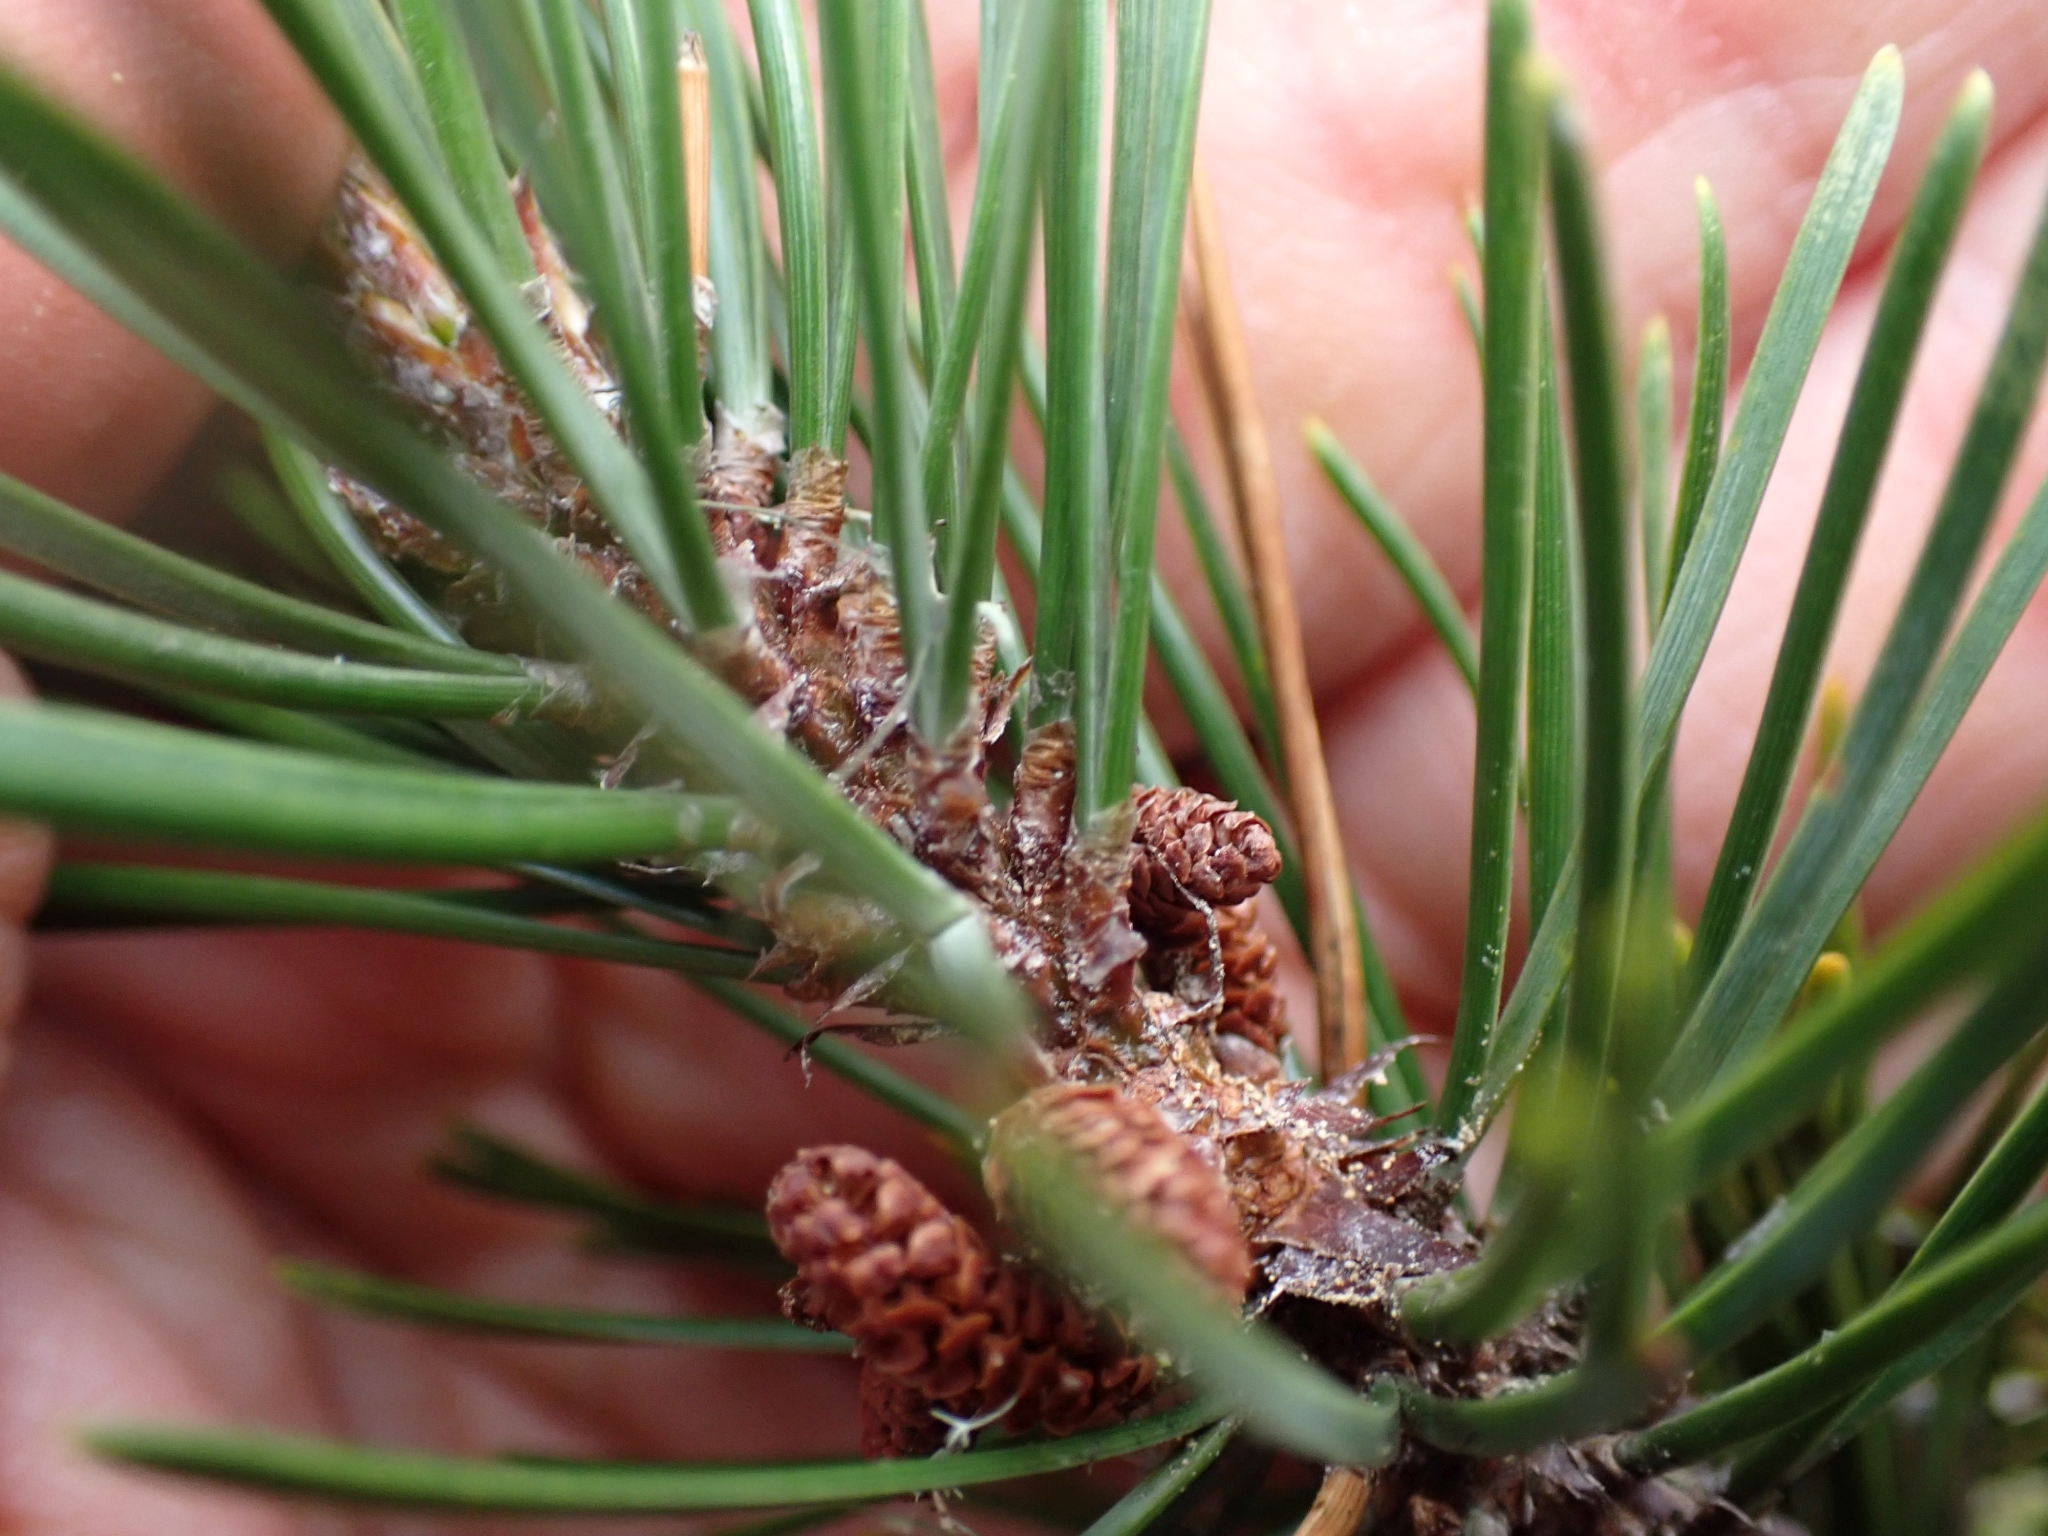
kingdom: Plantae
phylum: Tracheophyta
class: Pinopsida
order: Pinales
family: Pinaceae
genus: Pinus
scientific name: Pinus contorta
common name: Lodgepole pine
